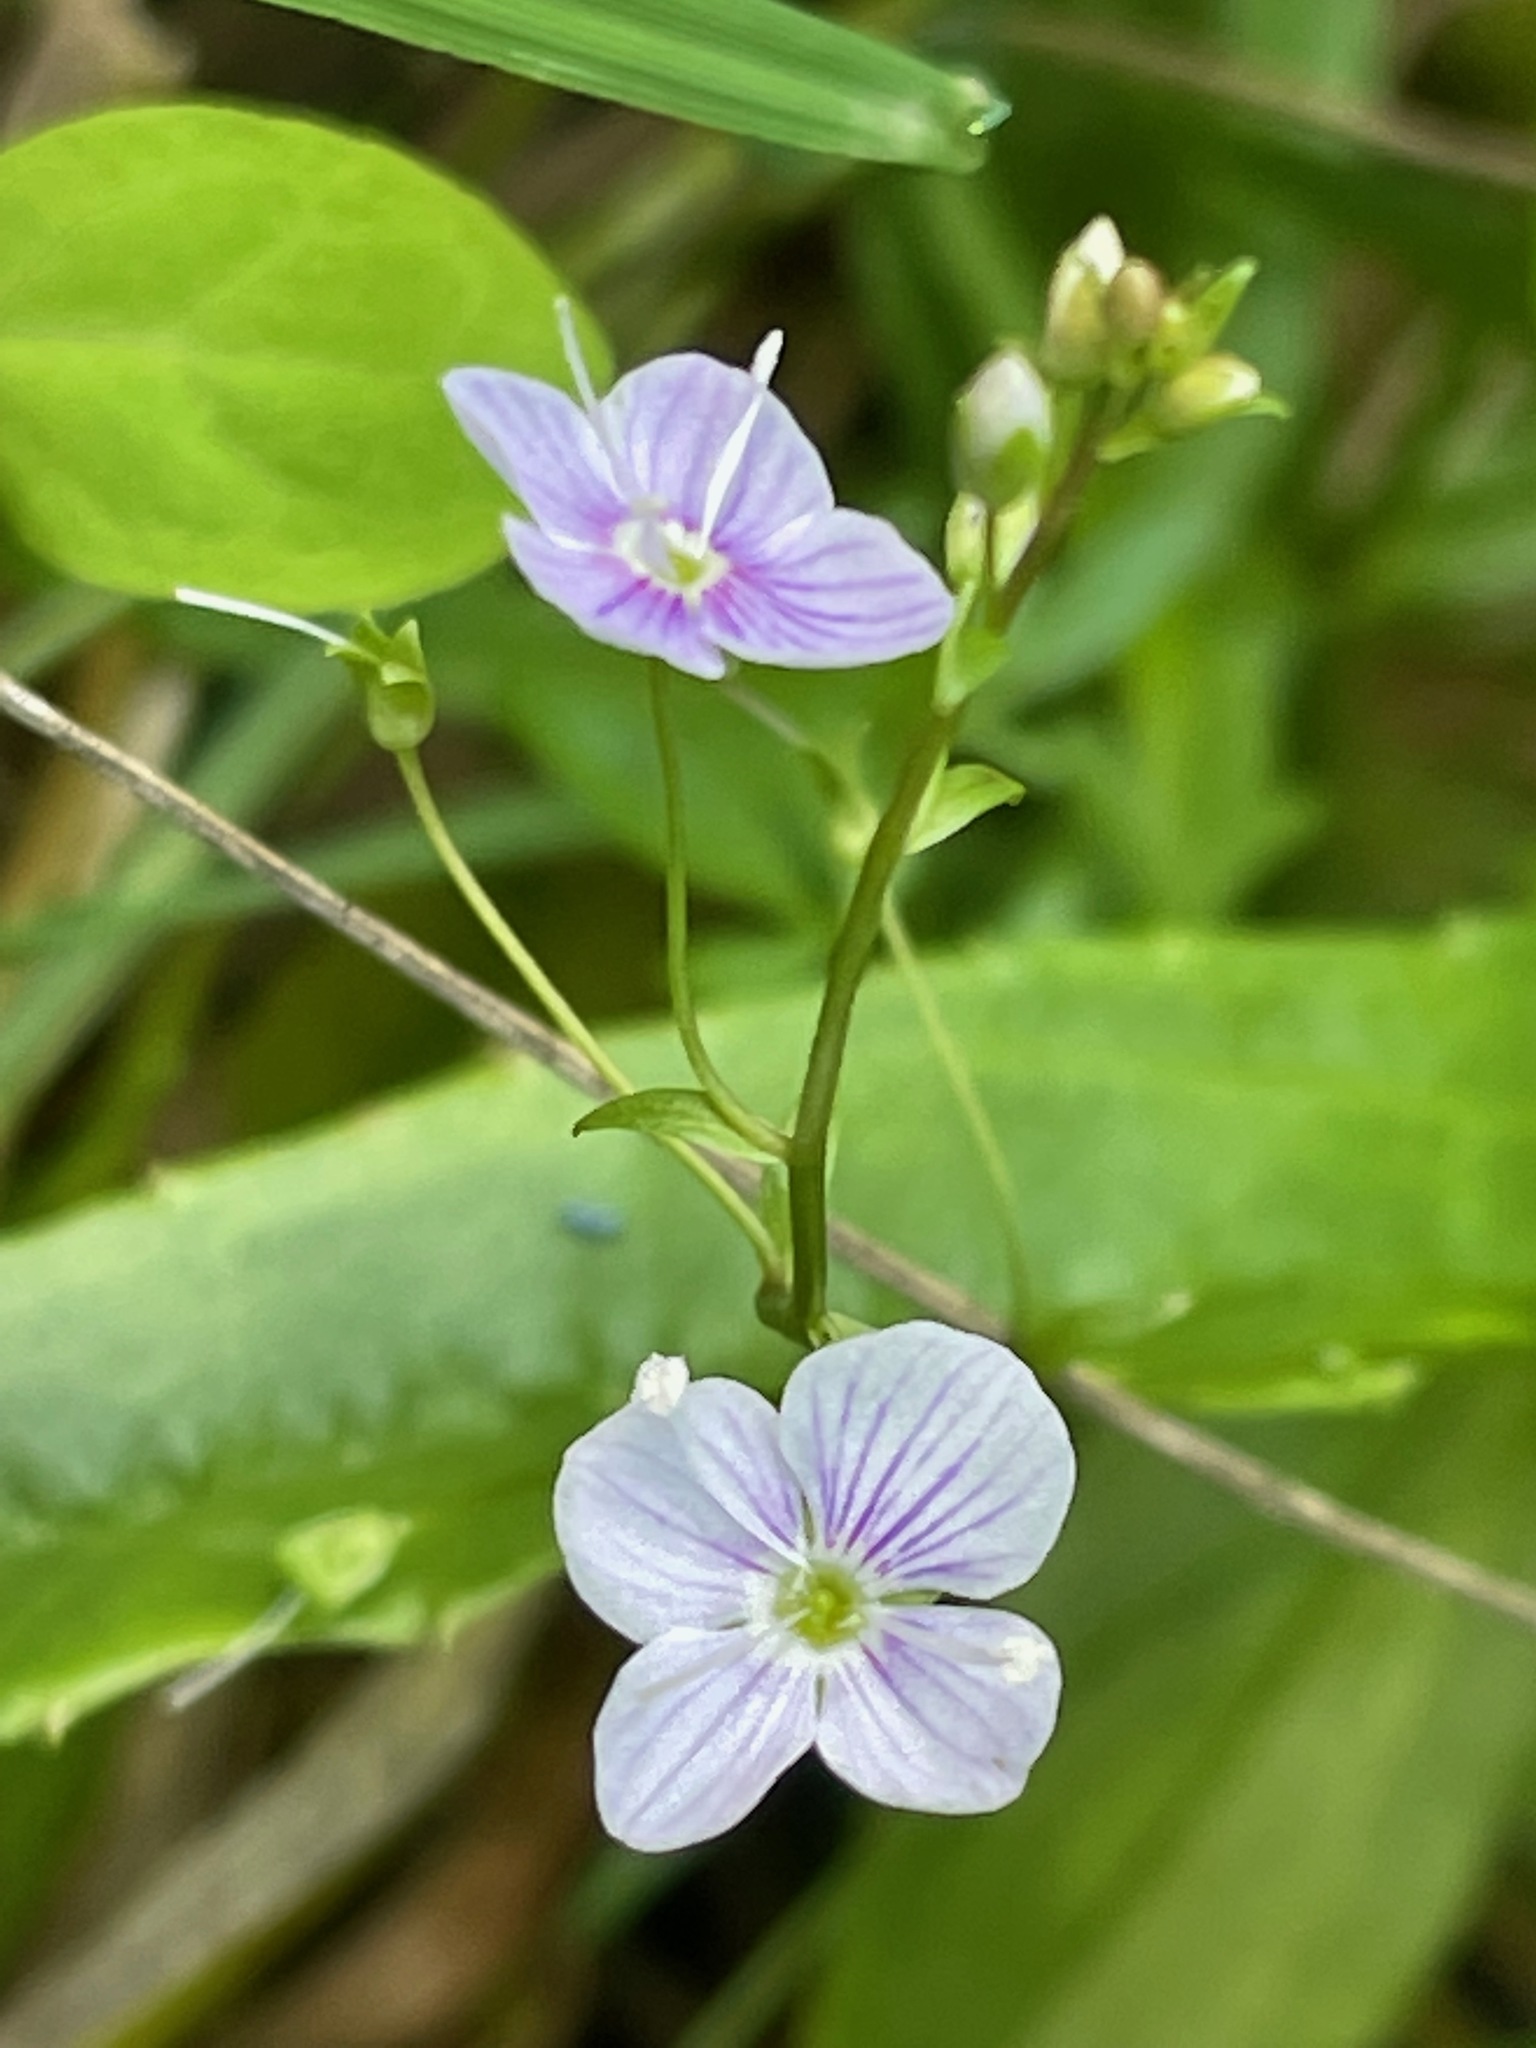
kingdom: Plantae
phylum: Tracheophyta
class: Magnoliopsida
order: Lamiales
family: Plantaginaceae
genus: Veronica
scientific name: Veronica scutellata
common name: Marsh speedwell
